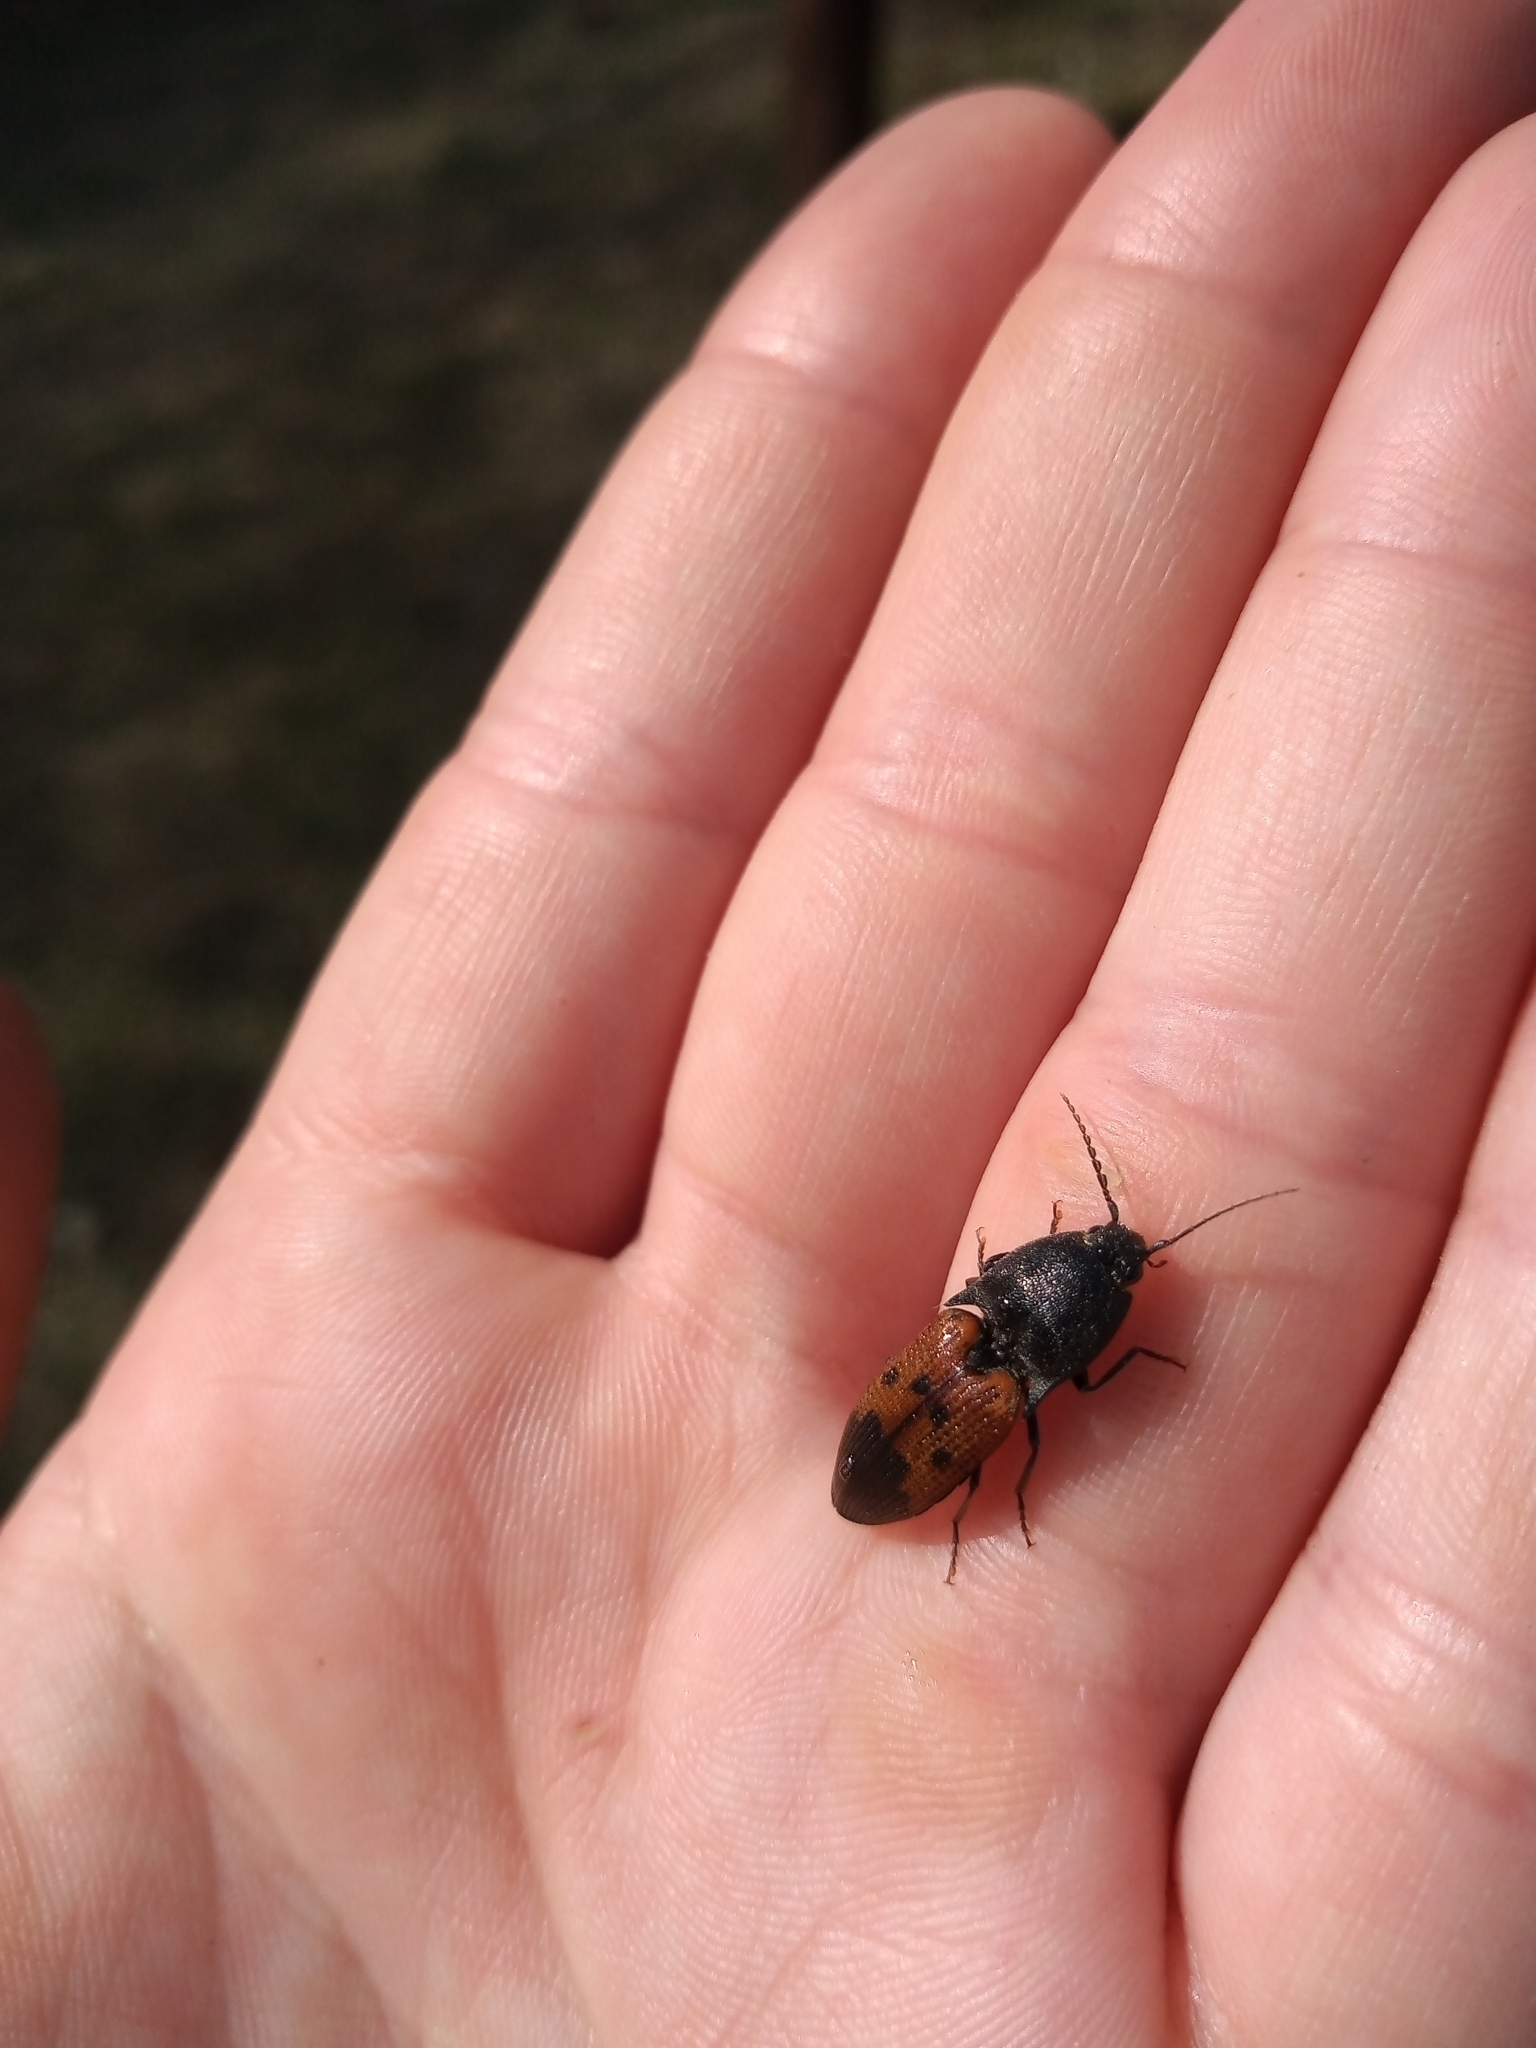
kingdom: Animalia
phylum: Arthropoda
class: Insecta
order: Coleoptera
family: Elateridae
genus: Monocrepidius
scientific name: Monocrepidius
